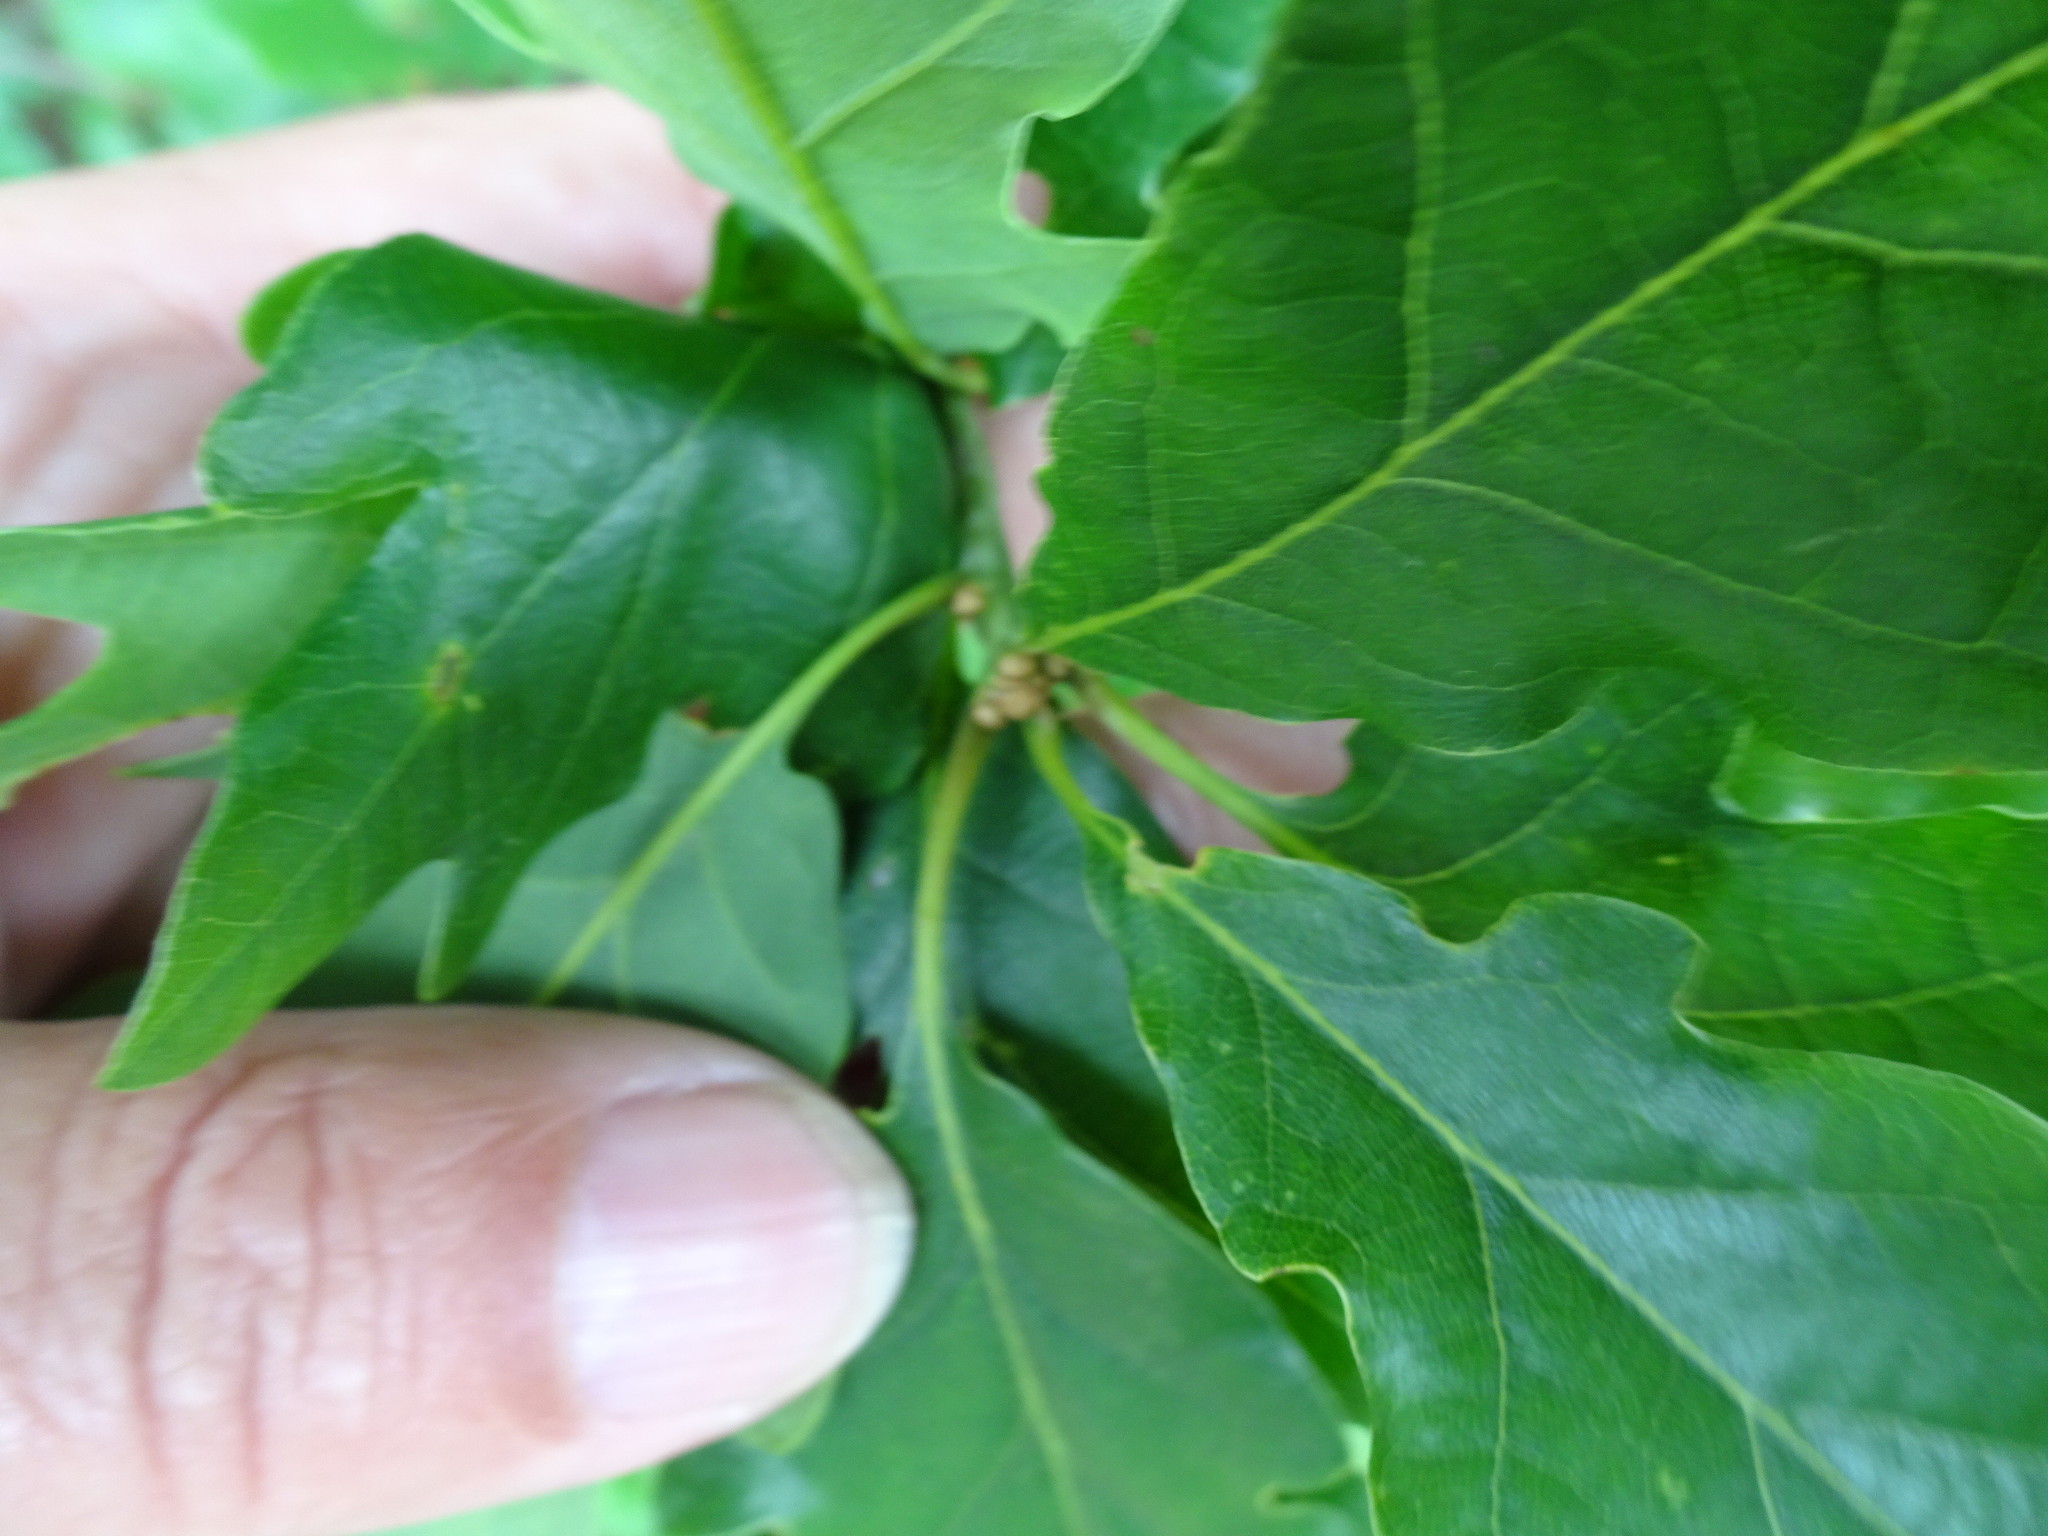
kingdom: Plantae
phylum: Tracheophyta
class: Magnoliopsida
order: Fagales
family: Fagaceae
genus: Quercus
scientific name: Quercus petraea
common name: Sessile oak
